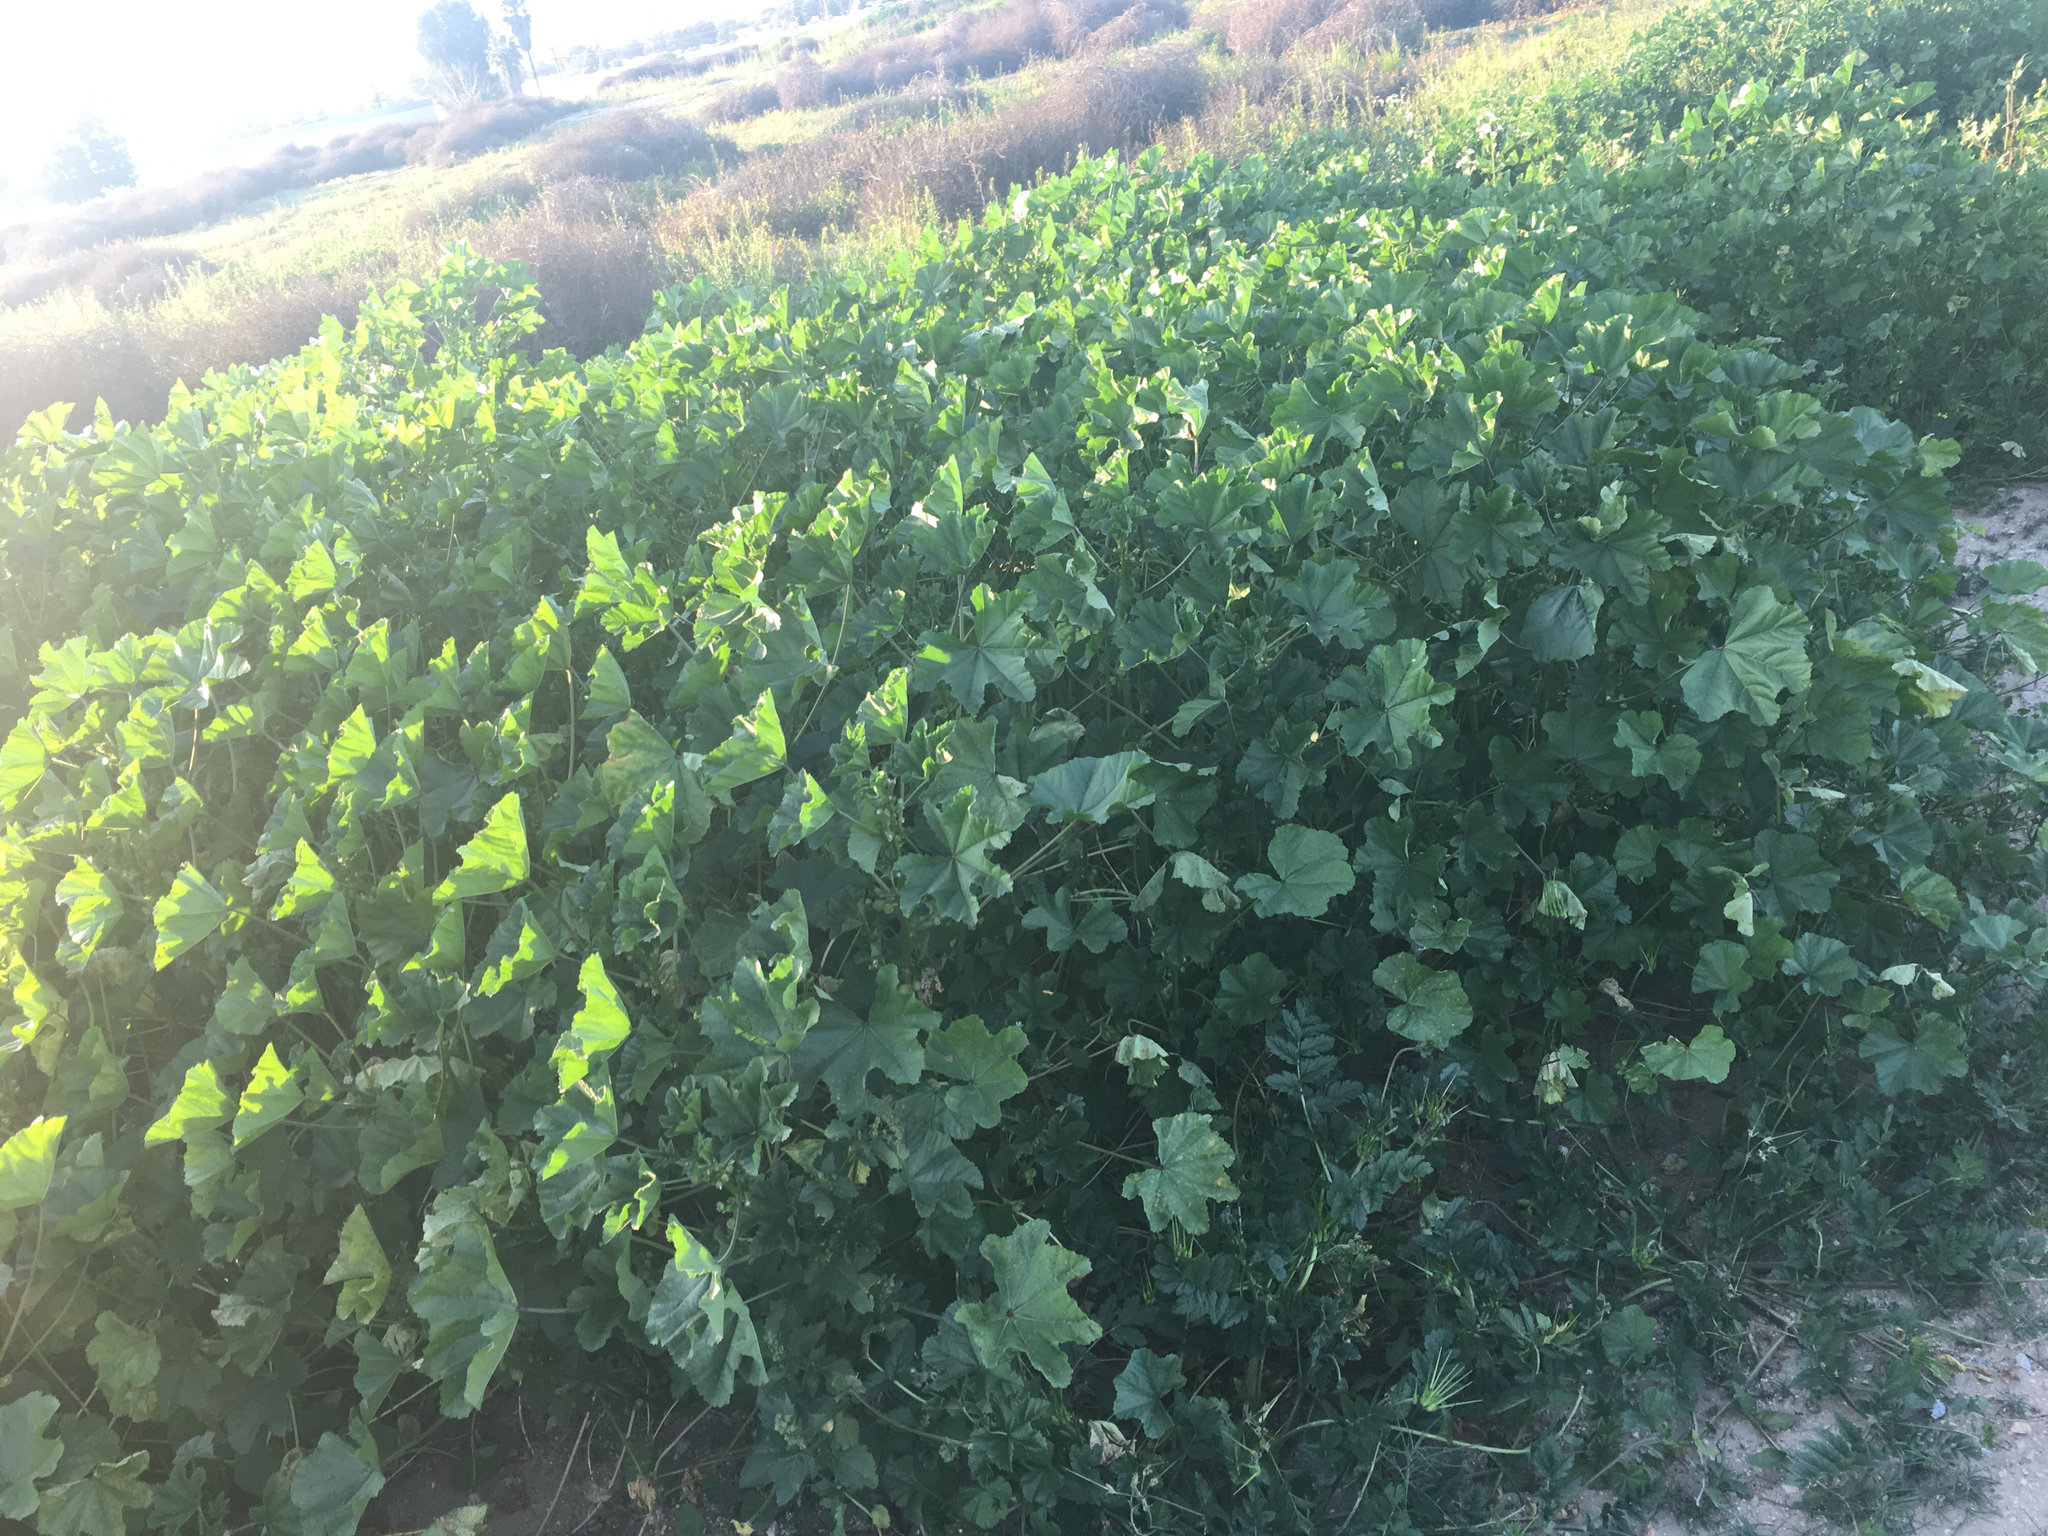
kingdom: Plantae
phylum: Tracheophyta
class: Magnoliopsida
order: Malvales
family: Malvaceae
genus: Malva
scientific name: Malva parviflora
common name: Least mallow
